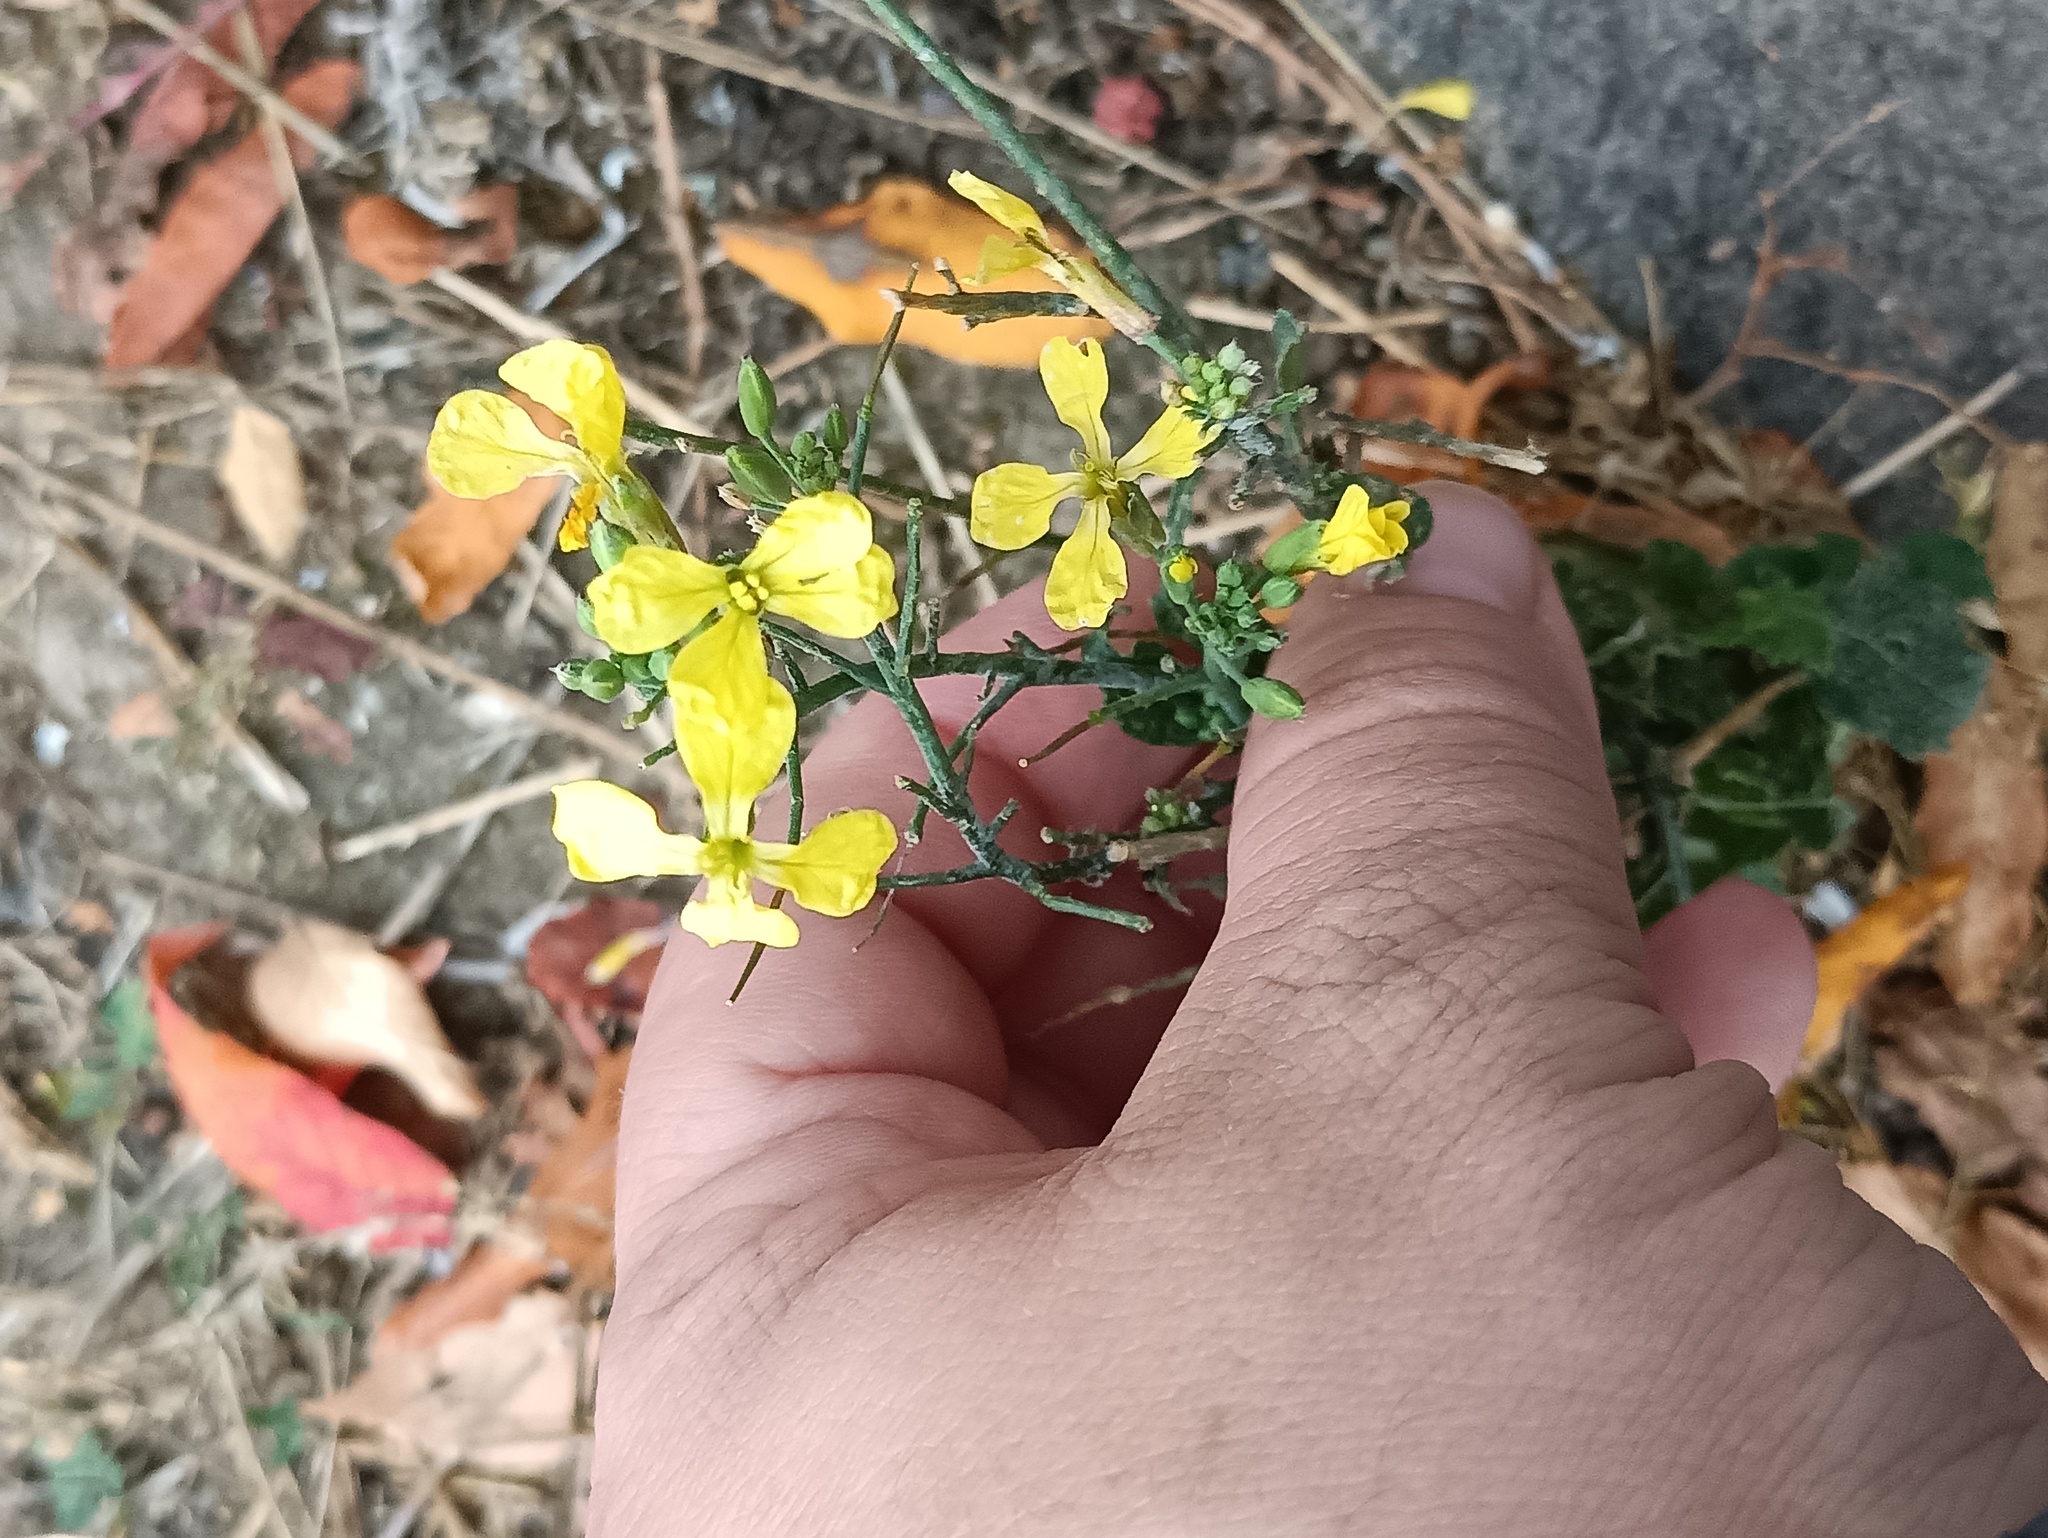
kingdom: Plantae
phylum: Tracheophyta
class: Magnoliopsida
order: Brassicales
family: Brassicaceae
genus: Raphanus
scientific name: Raphanus raphanistrum
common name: Wild radish
